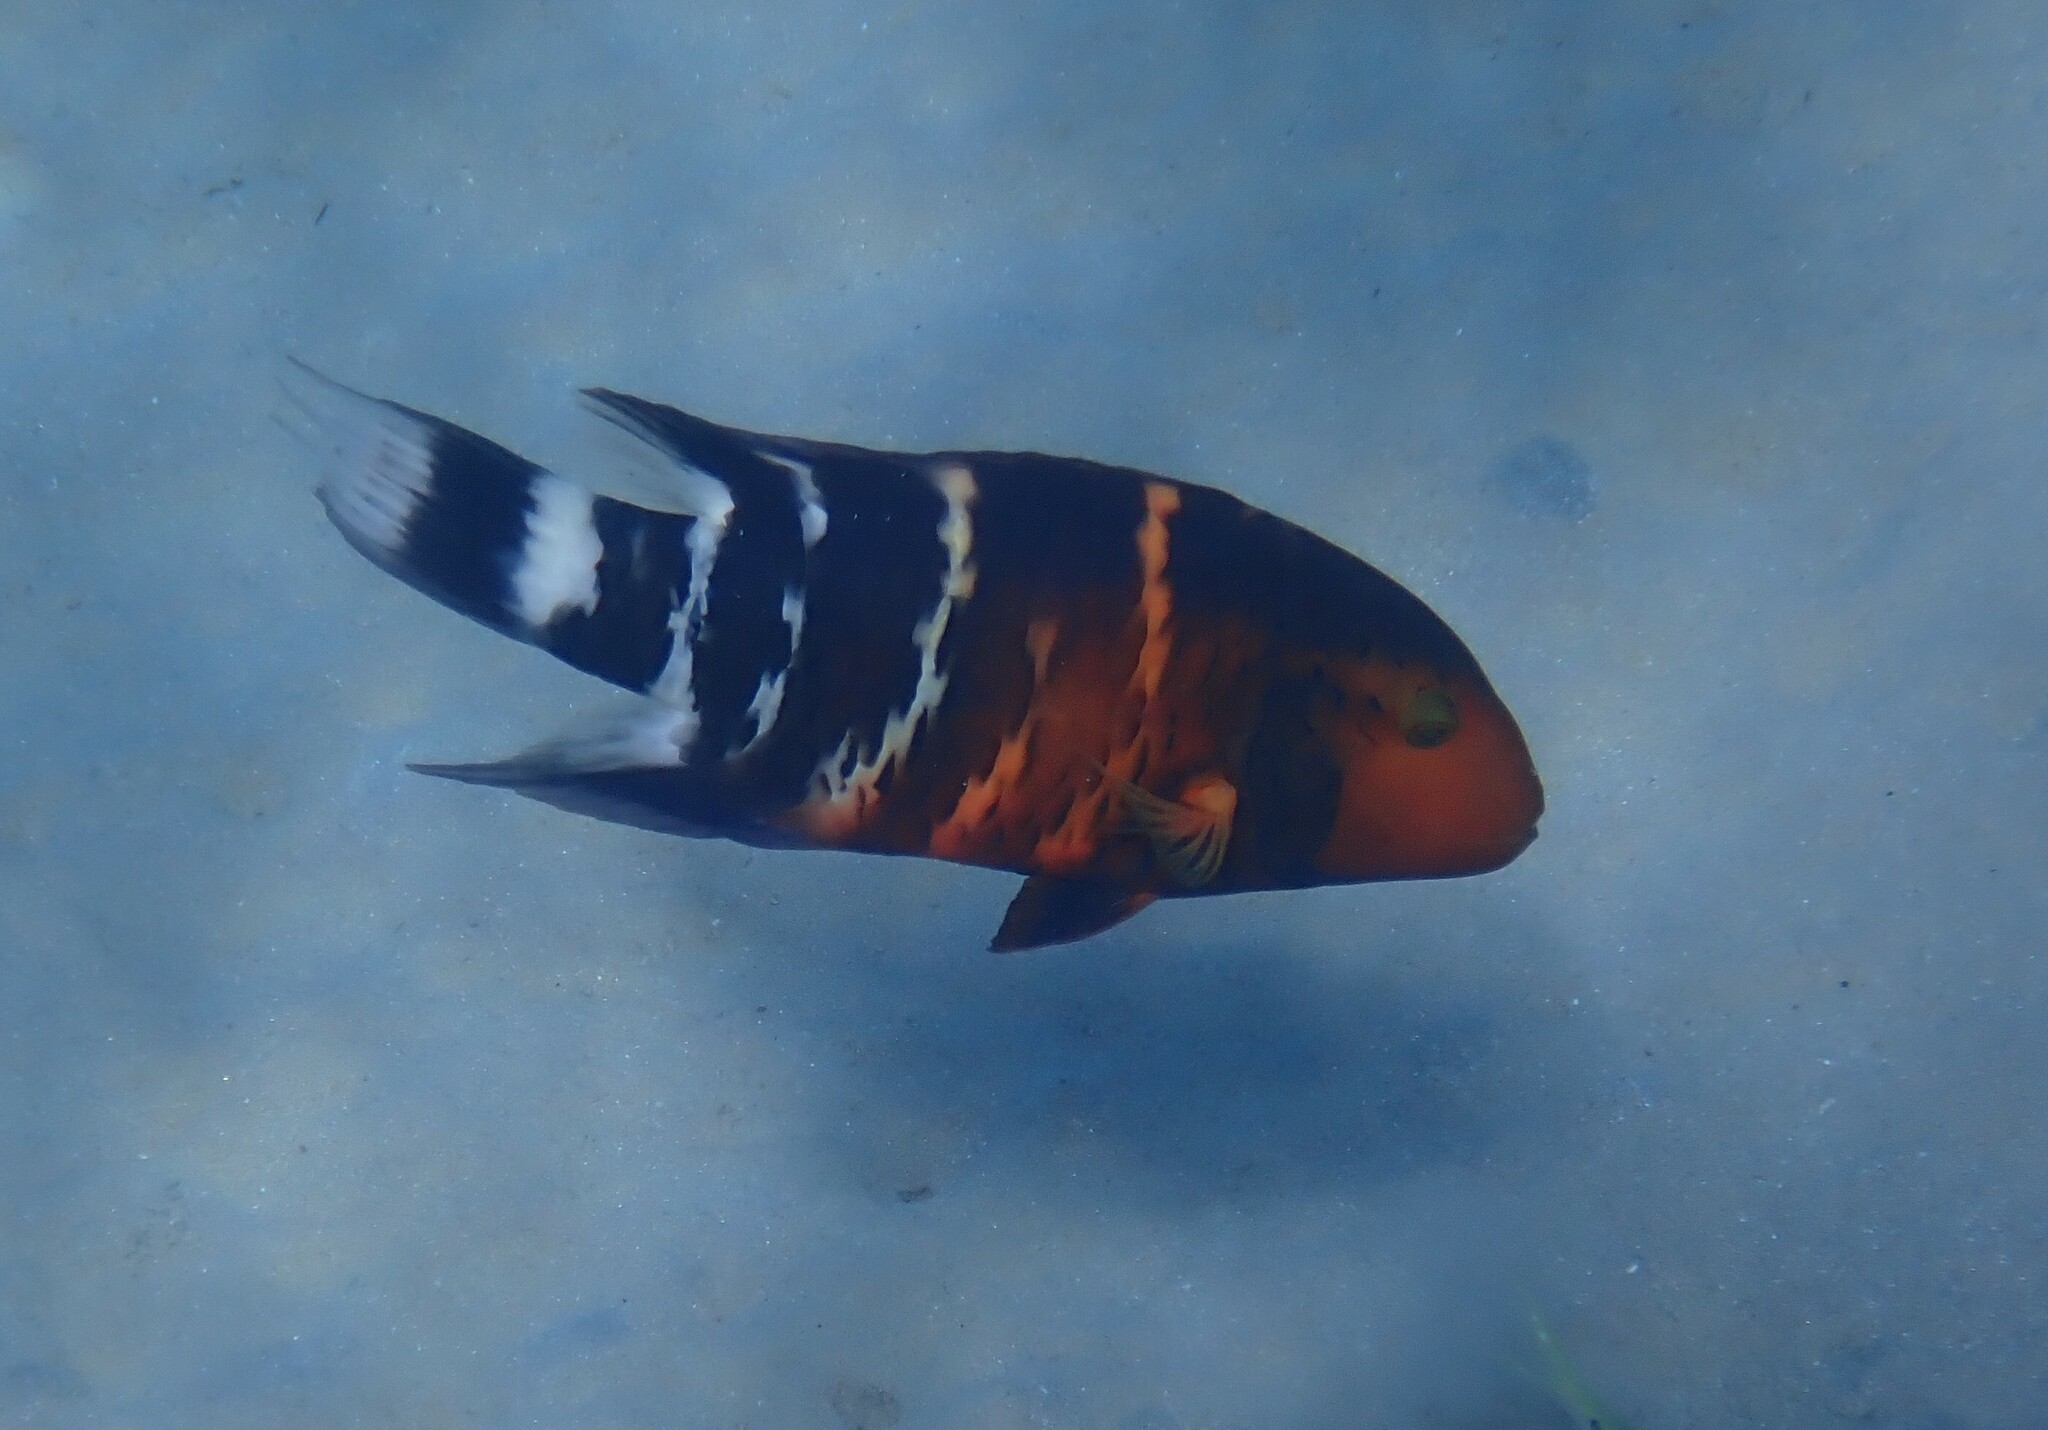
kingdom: Animalia
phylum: Chordata
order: Perciformes
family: Labridae
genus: Cheilinus
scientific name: Cheilinus fasciatus
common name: Red-breasted wrasse
